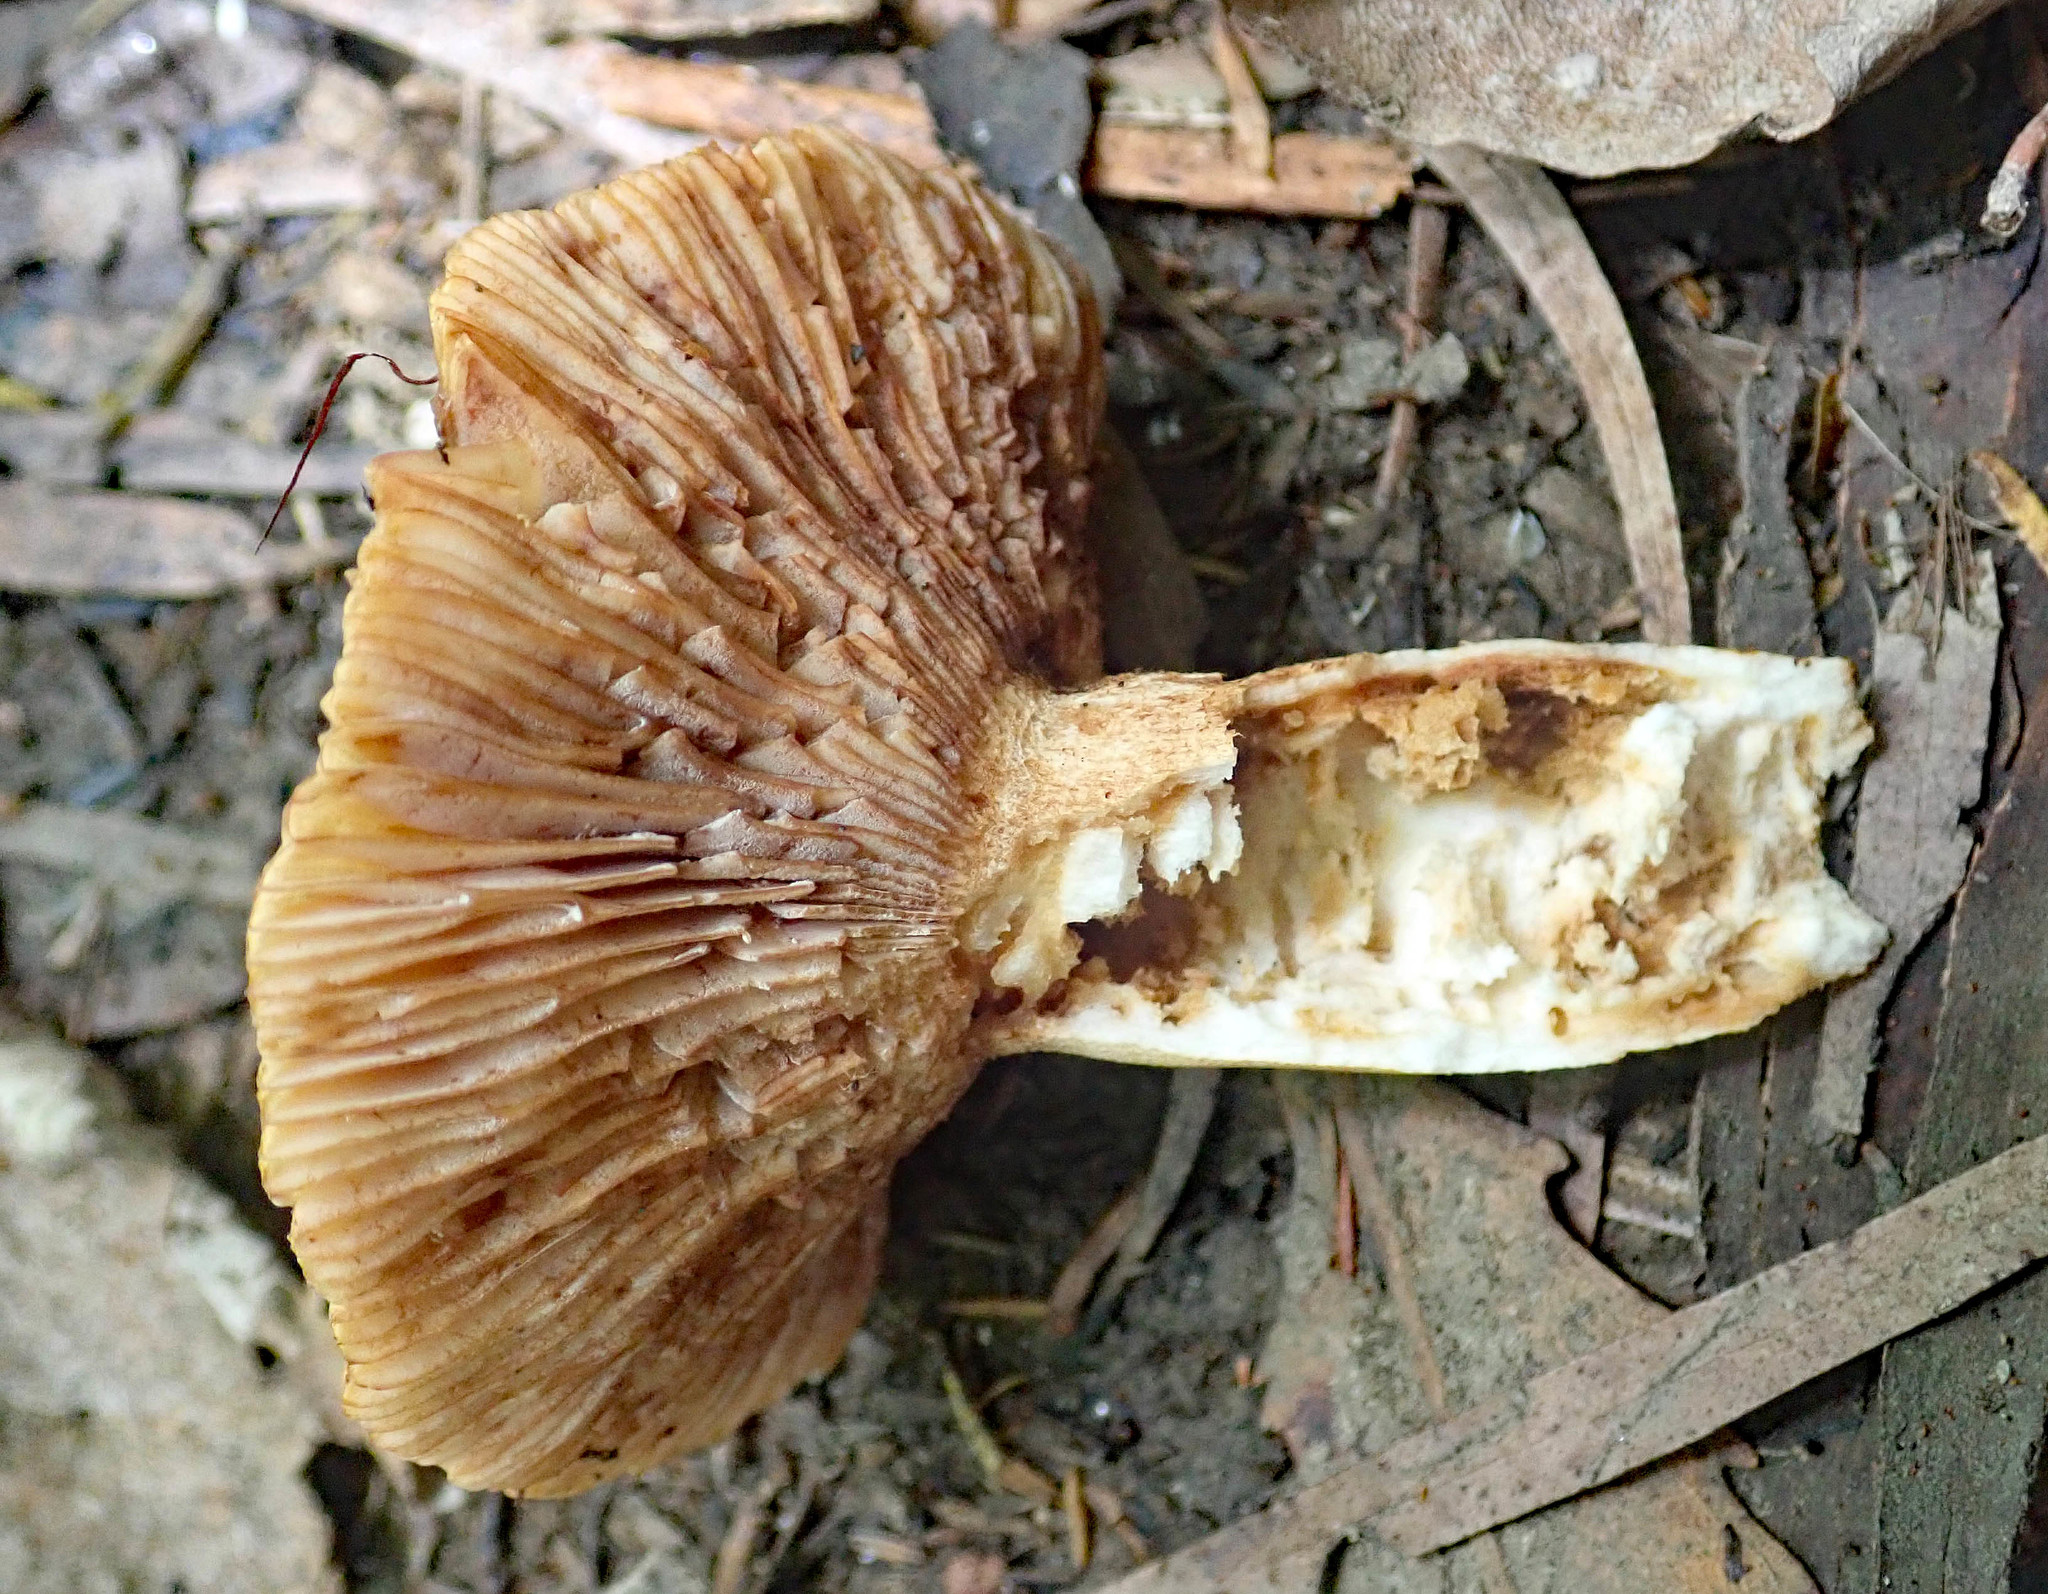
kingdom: Fungi
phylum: Basidiomycota
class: Agaricomycetes
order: Russulales
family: Russulaceae
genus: Russula
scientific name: Russula acrolamellata
